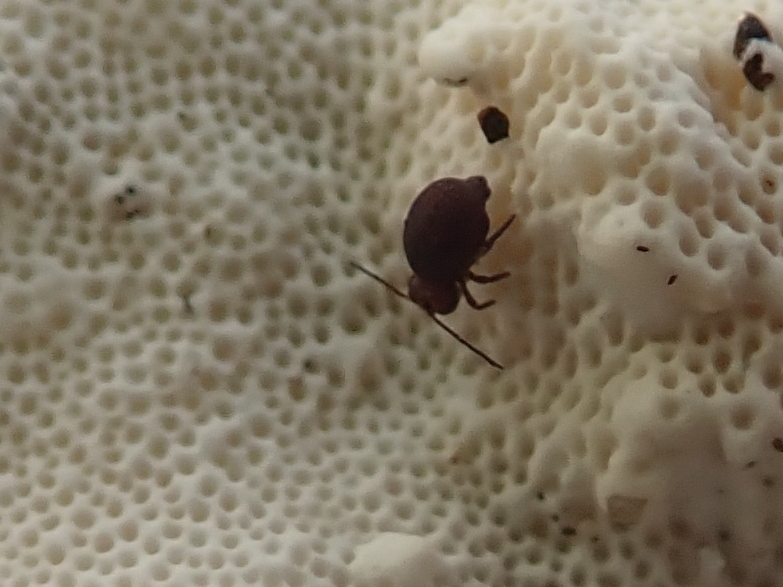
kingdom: Animalia
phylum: Arthropoda
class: Collembola
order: Symphypleona
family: Dicyrtomidae
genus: Dicyrtoma
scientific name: Dicyrtoma fusca
